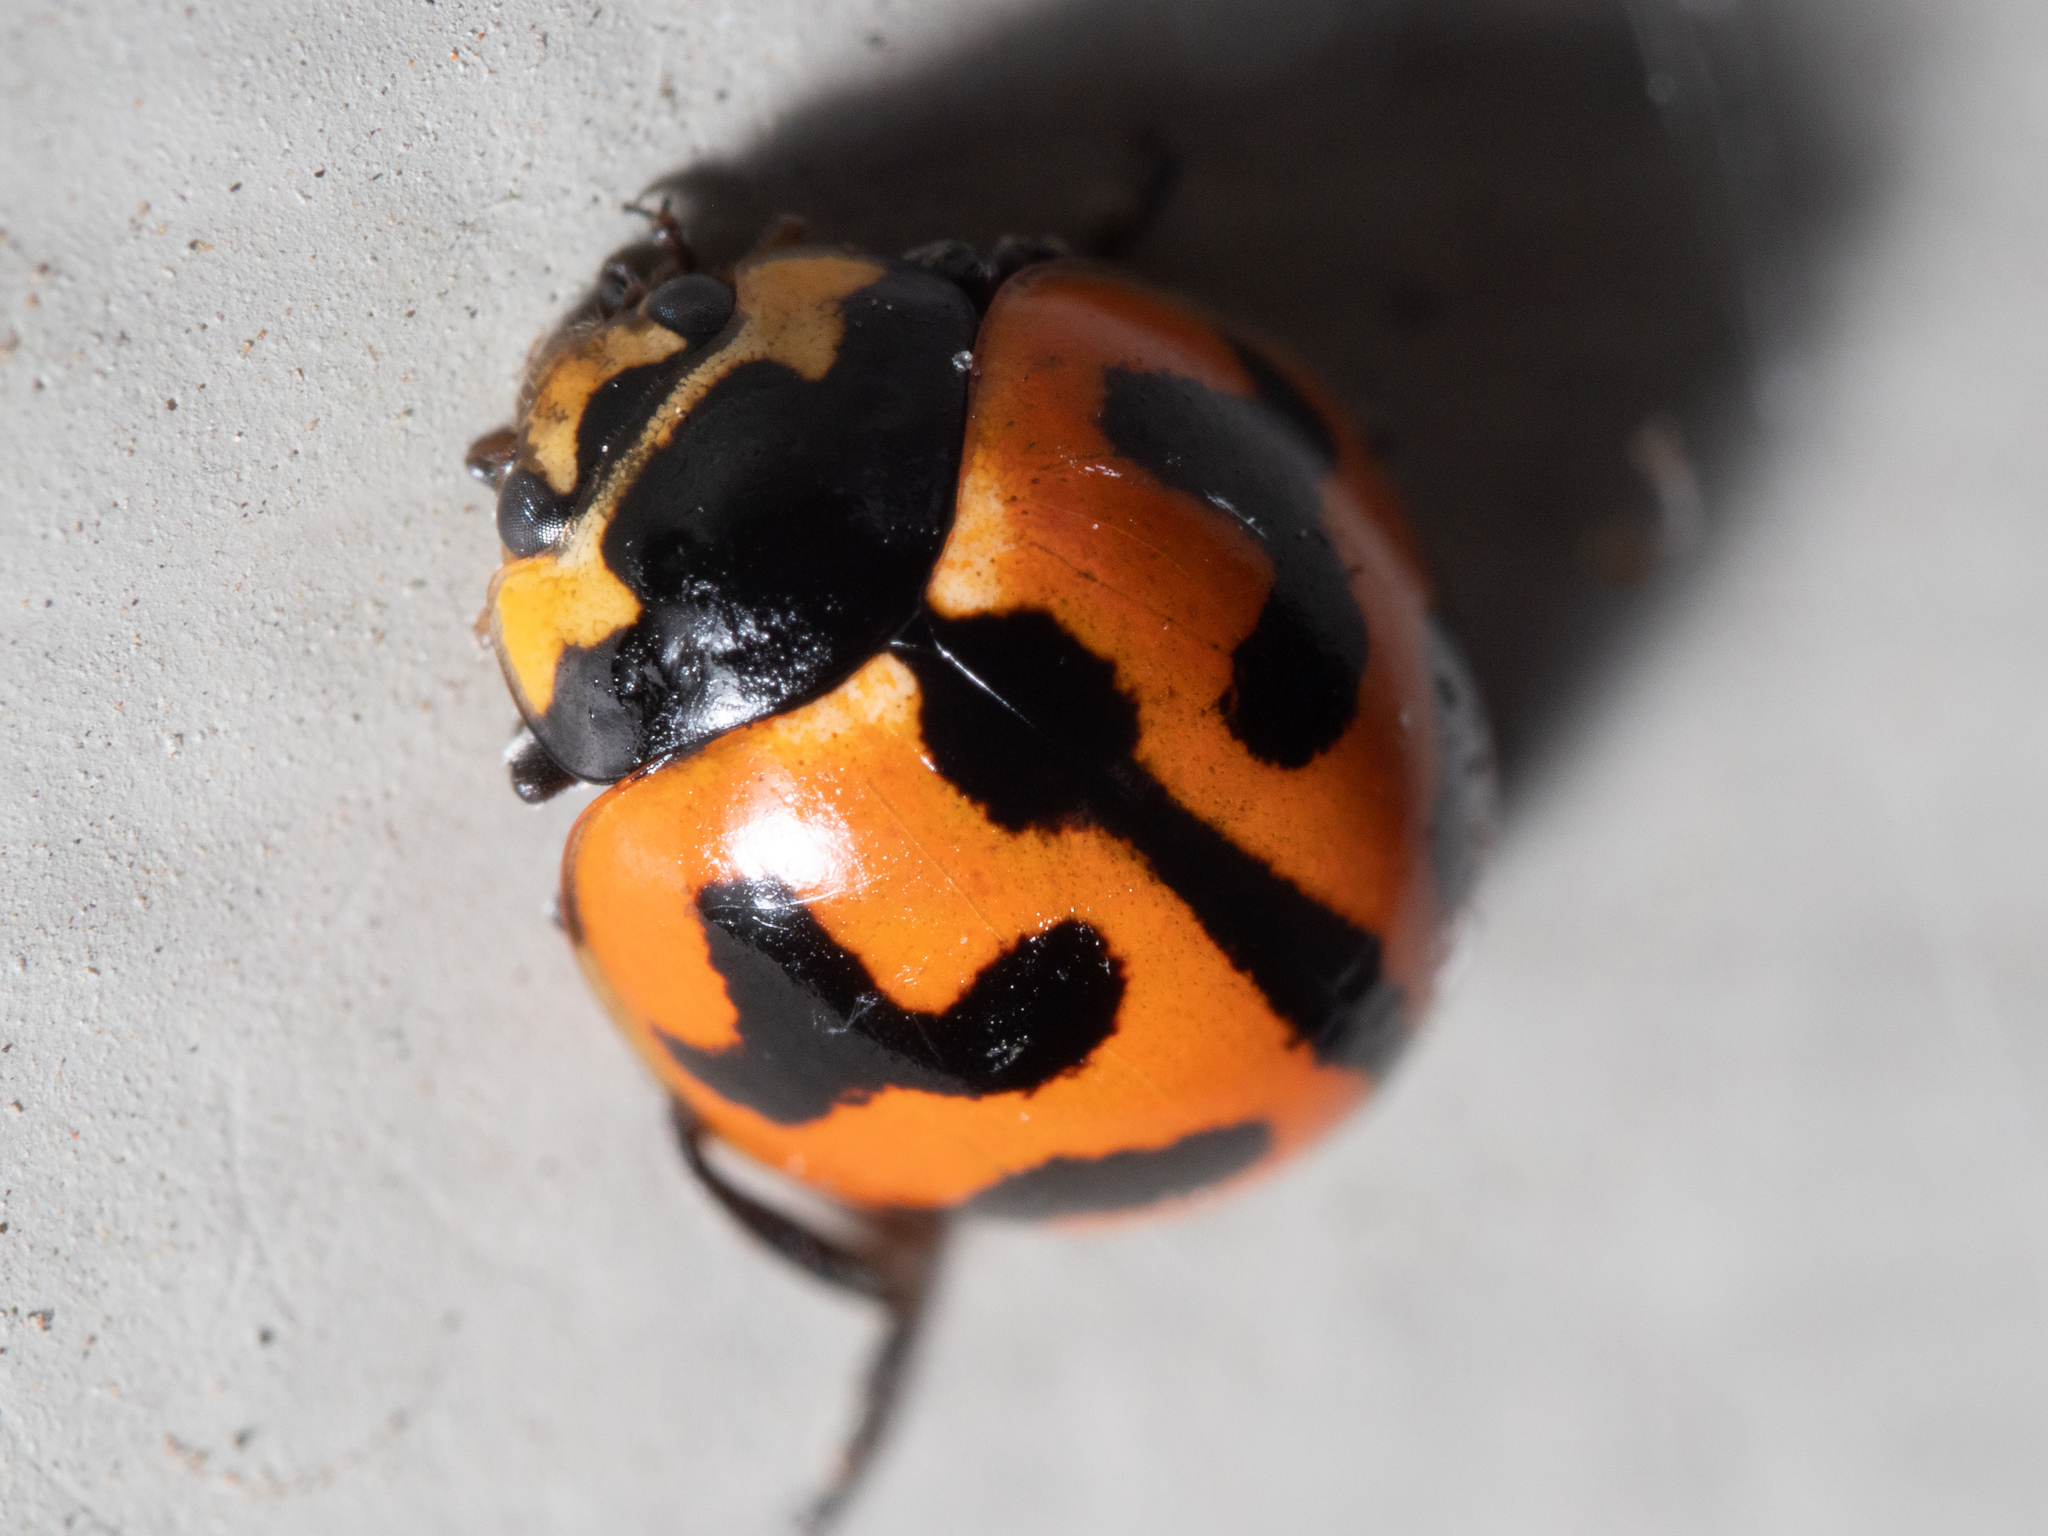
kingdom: Animalia
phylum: Arthropoda
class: Insecta
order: Coleoptera
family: Coccinellidae
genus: Coccinella
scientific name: Coccinella transversalis
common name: Transverse lady beetle
